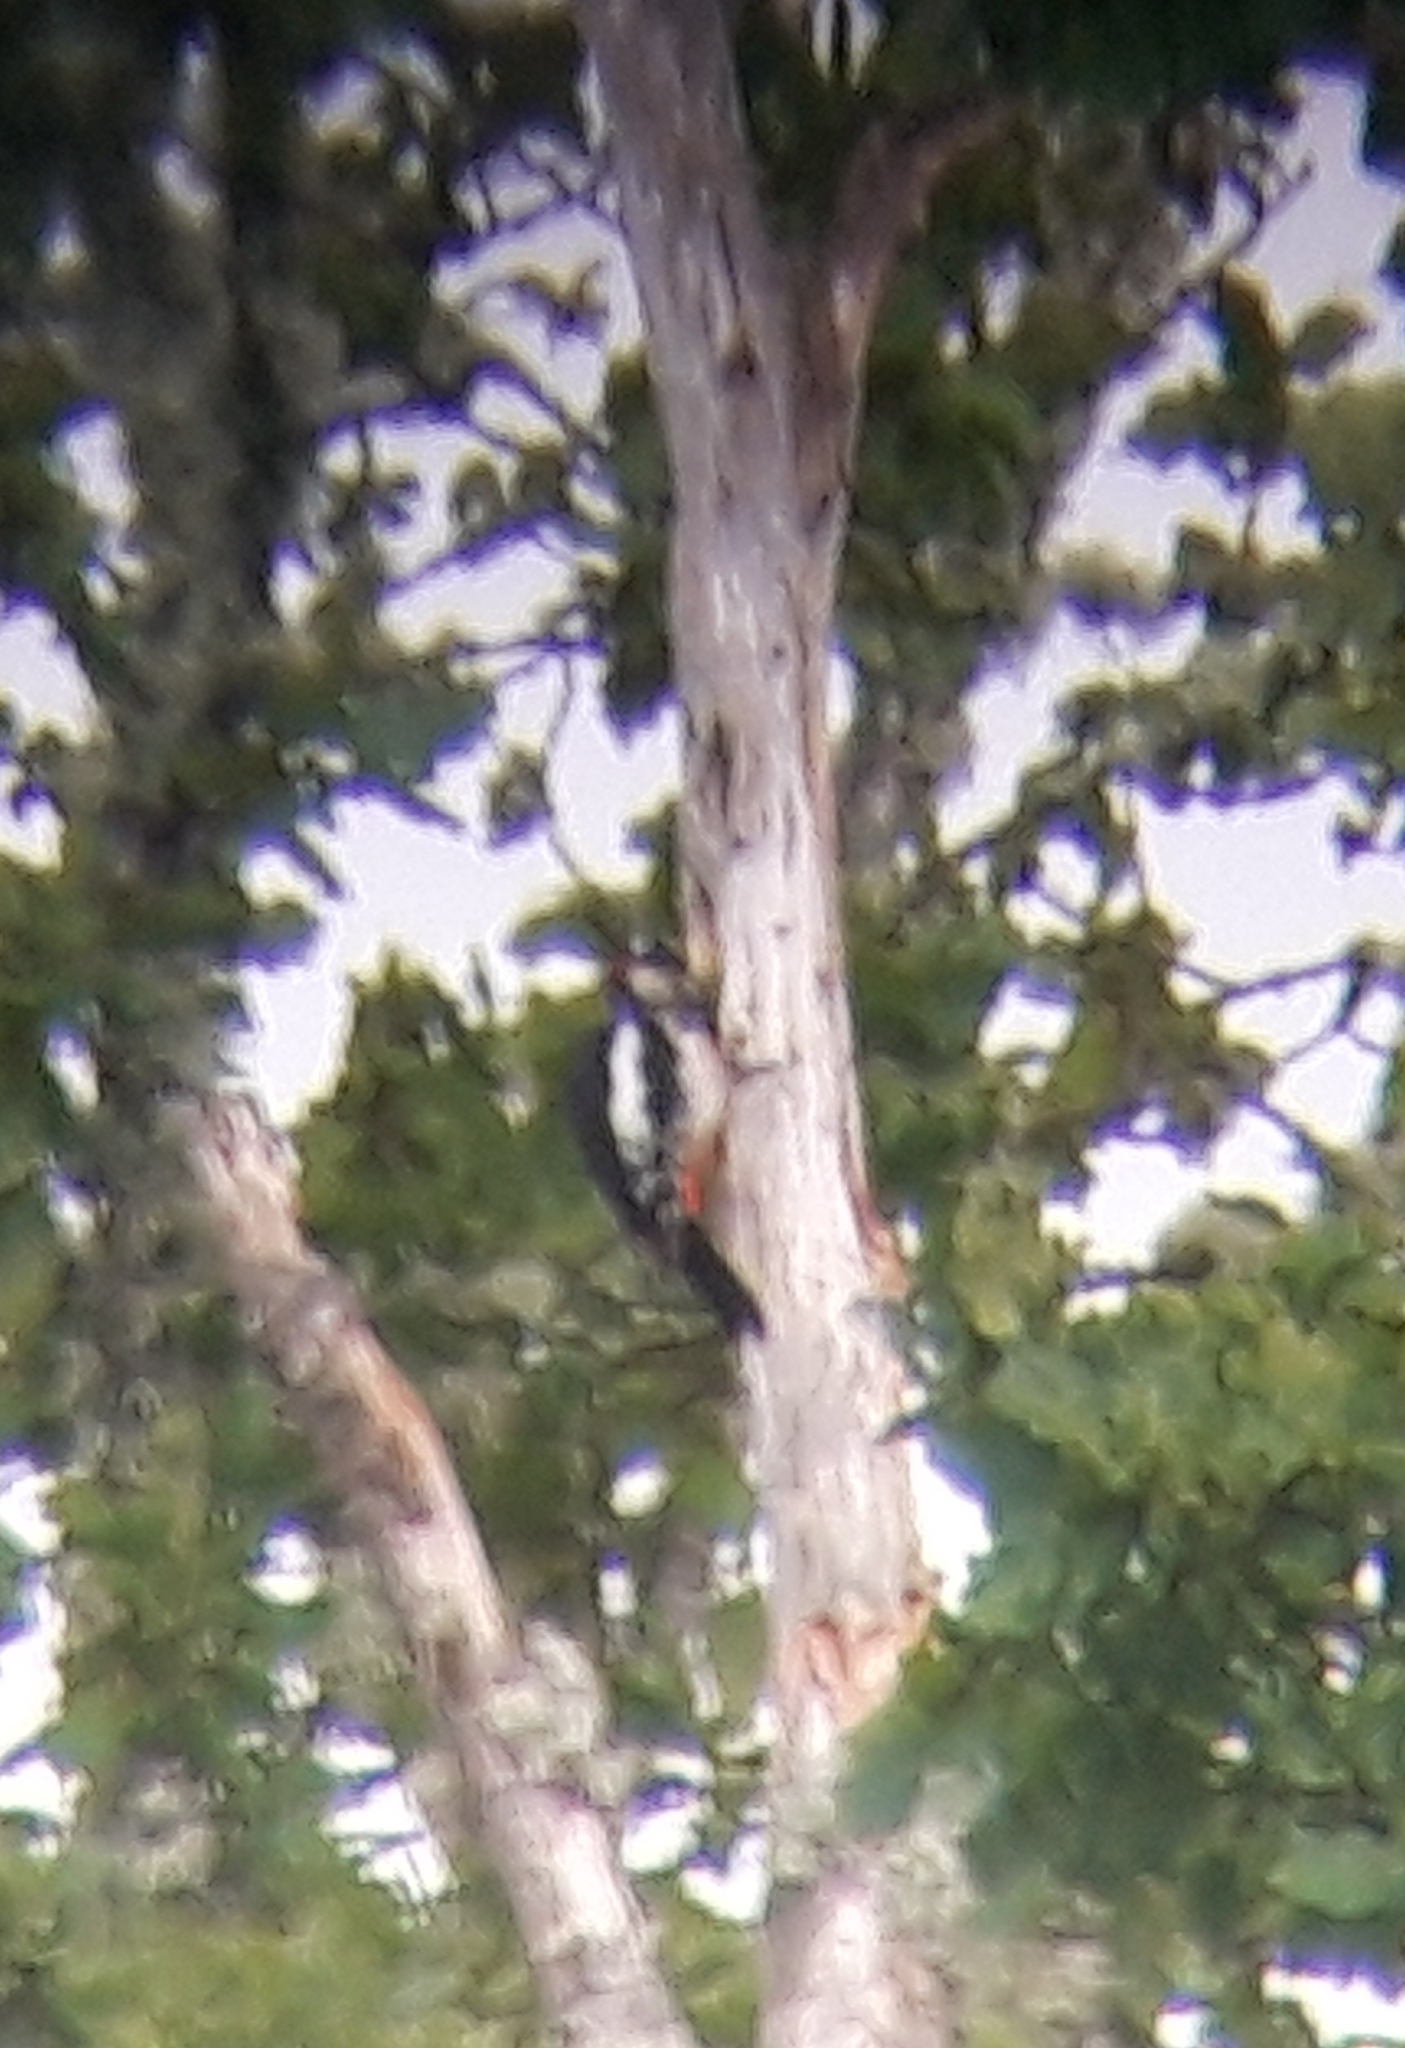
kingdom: Animalia
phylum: Chordata
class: Aves
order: Piciformes
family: Picidae
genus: Dendrocopos
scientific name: Dendrocopos major
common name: Great spotted woodpecker
